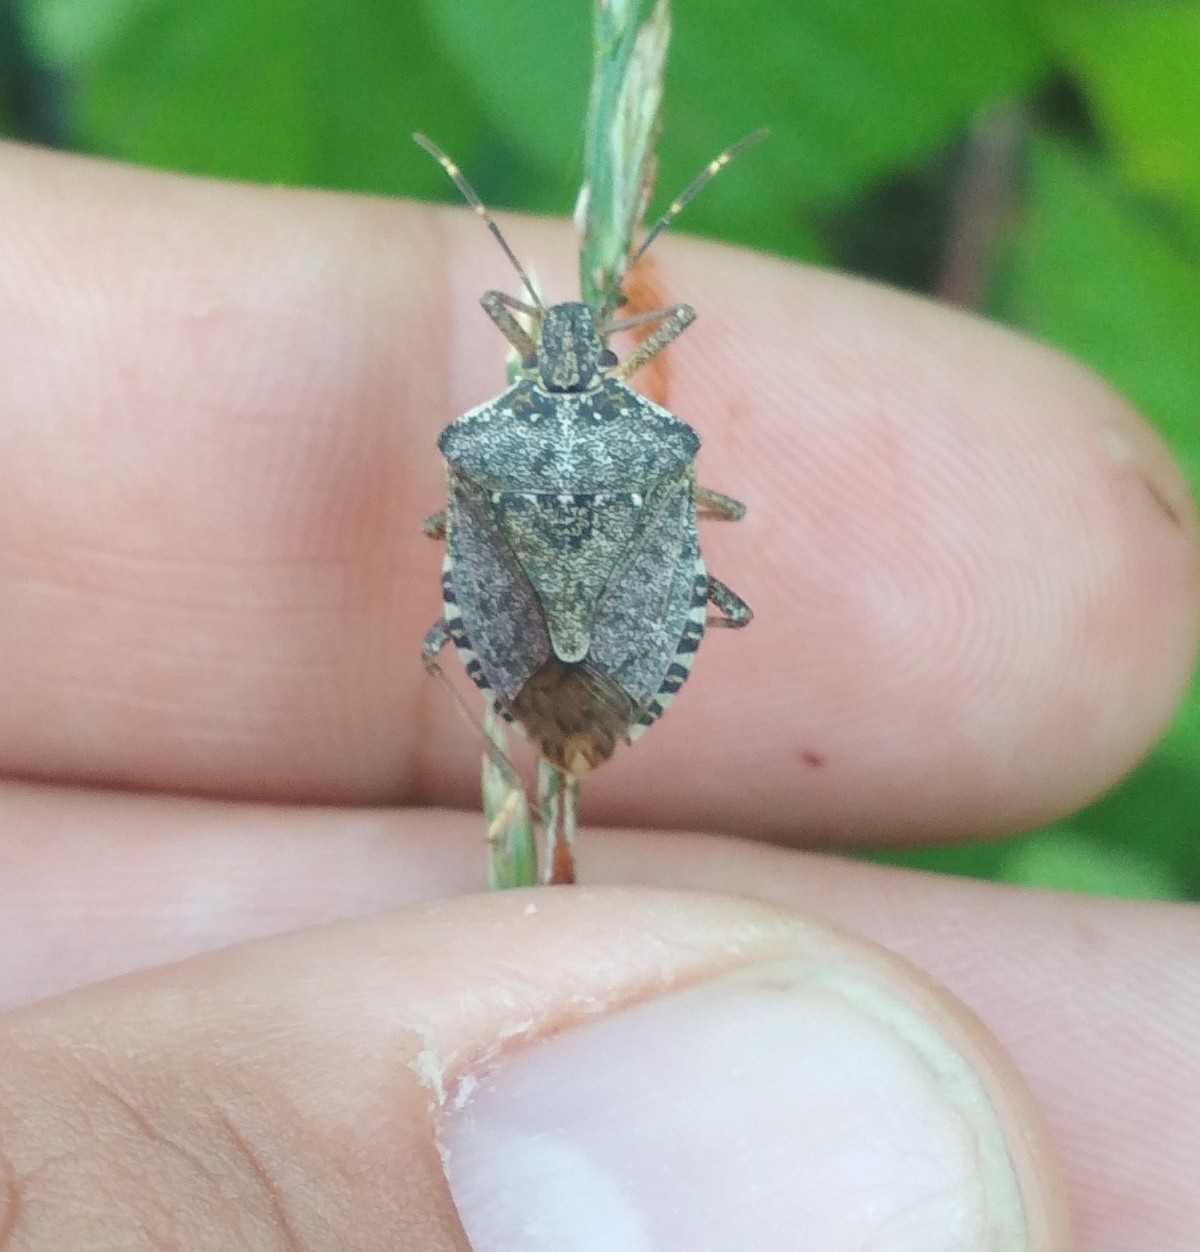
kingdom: Animalia
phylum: Arthropoda
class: Insecta
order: Hemiptera
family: Pentatomidae
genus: Halyomorpha
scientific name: Halyomorpha halys
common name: Brown marmorated stink bug
